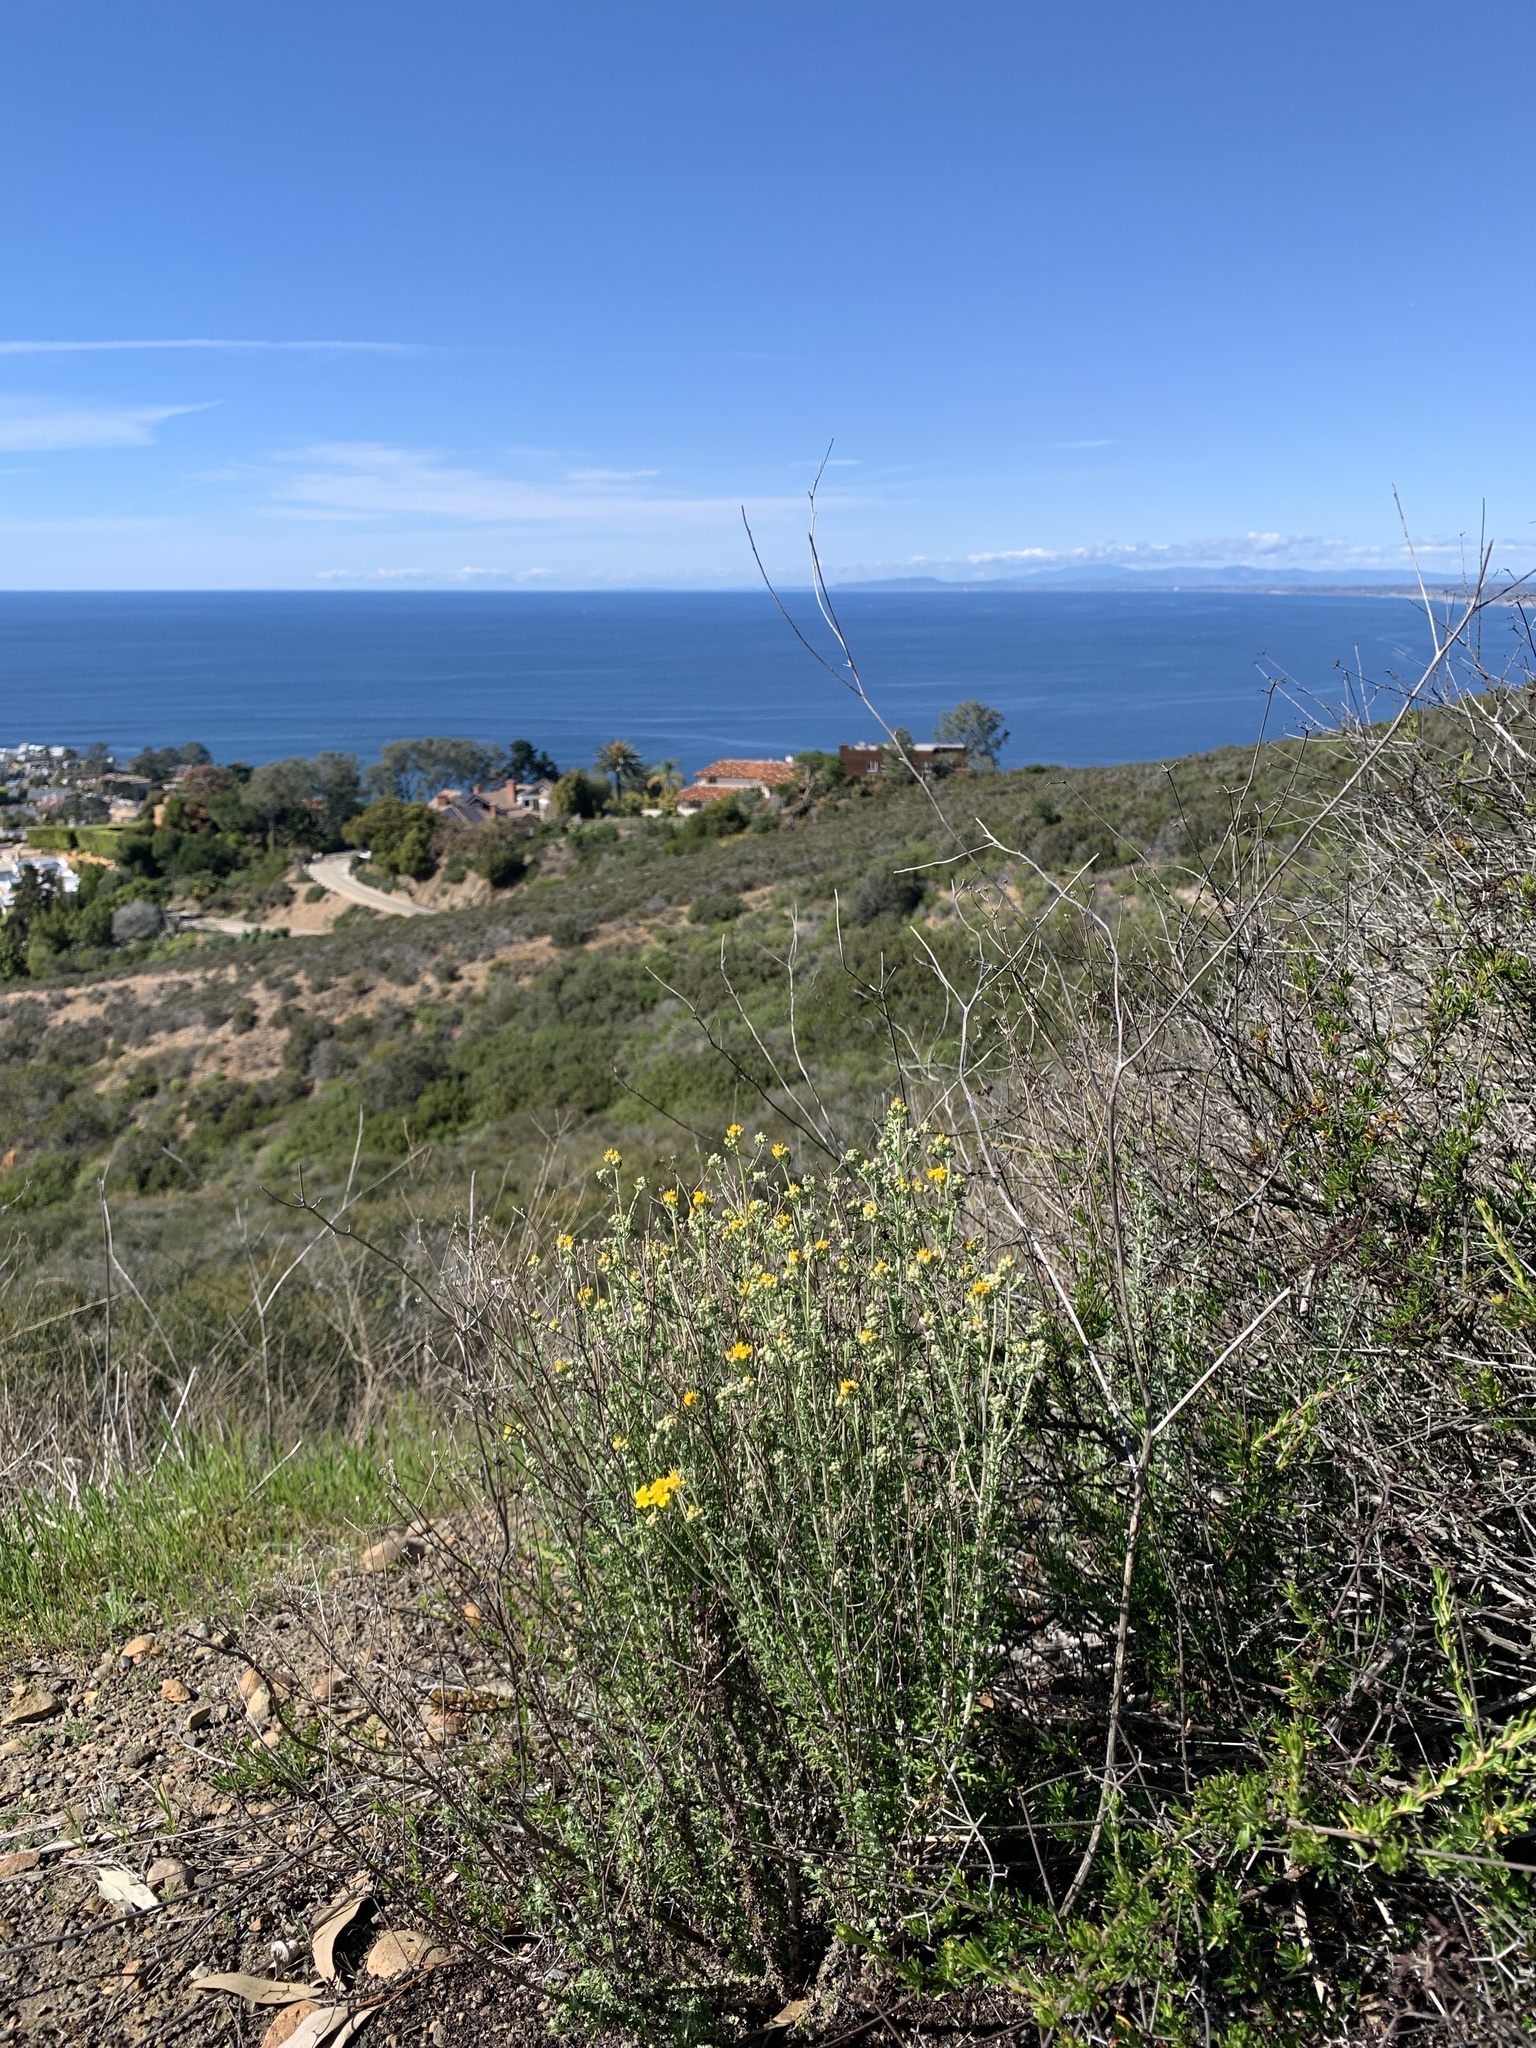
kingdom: Plantae
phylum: Tracheophyta
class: Magnoliopsida
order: Asterales
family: Asteraceae
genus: Eriophyllum
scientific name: Eriophyllum confertiflorum
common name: Golden-yarrow
